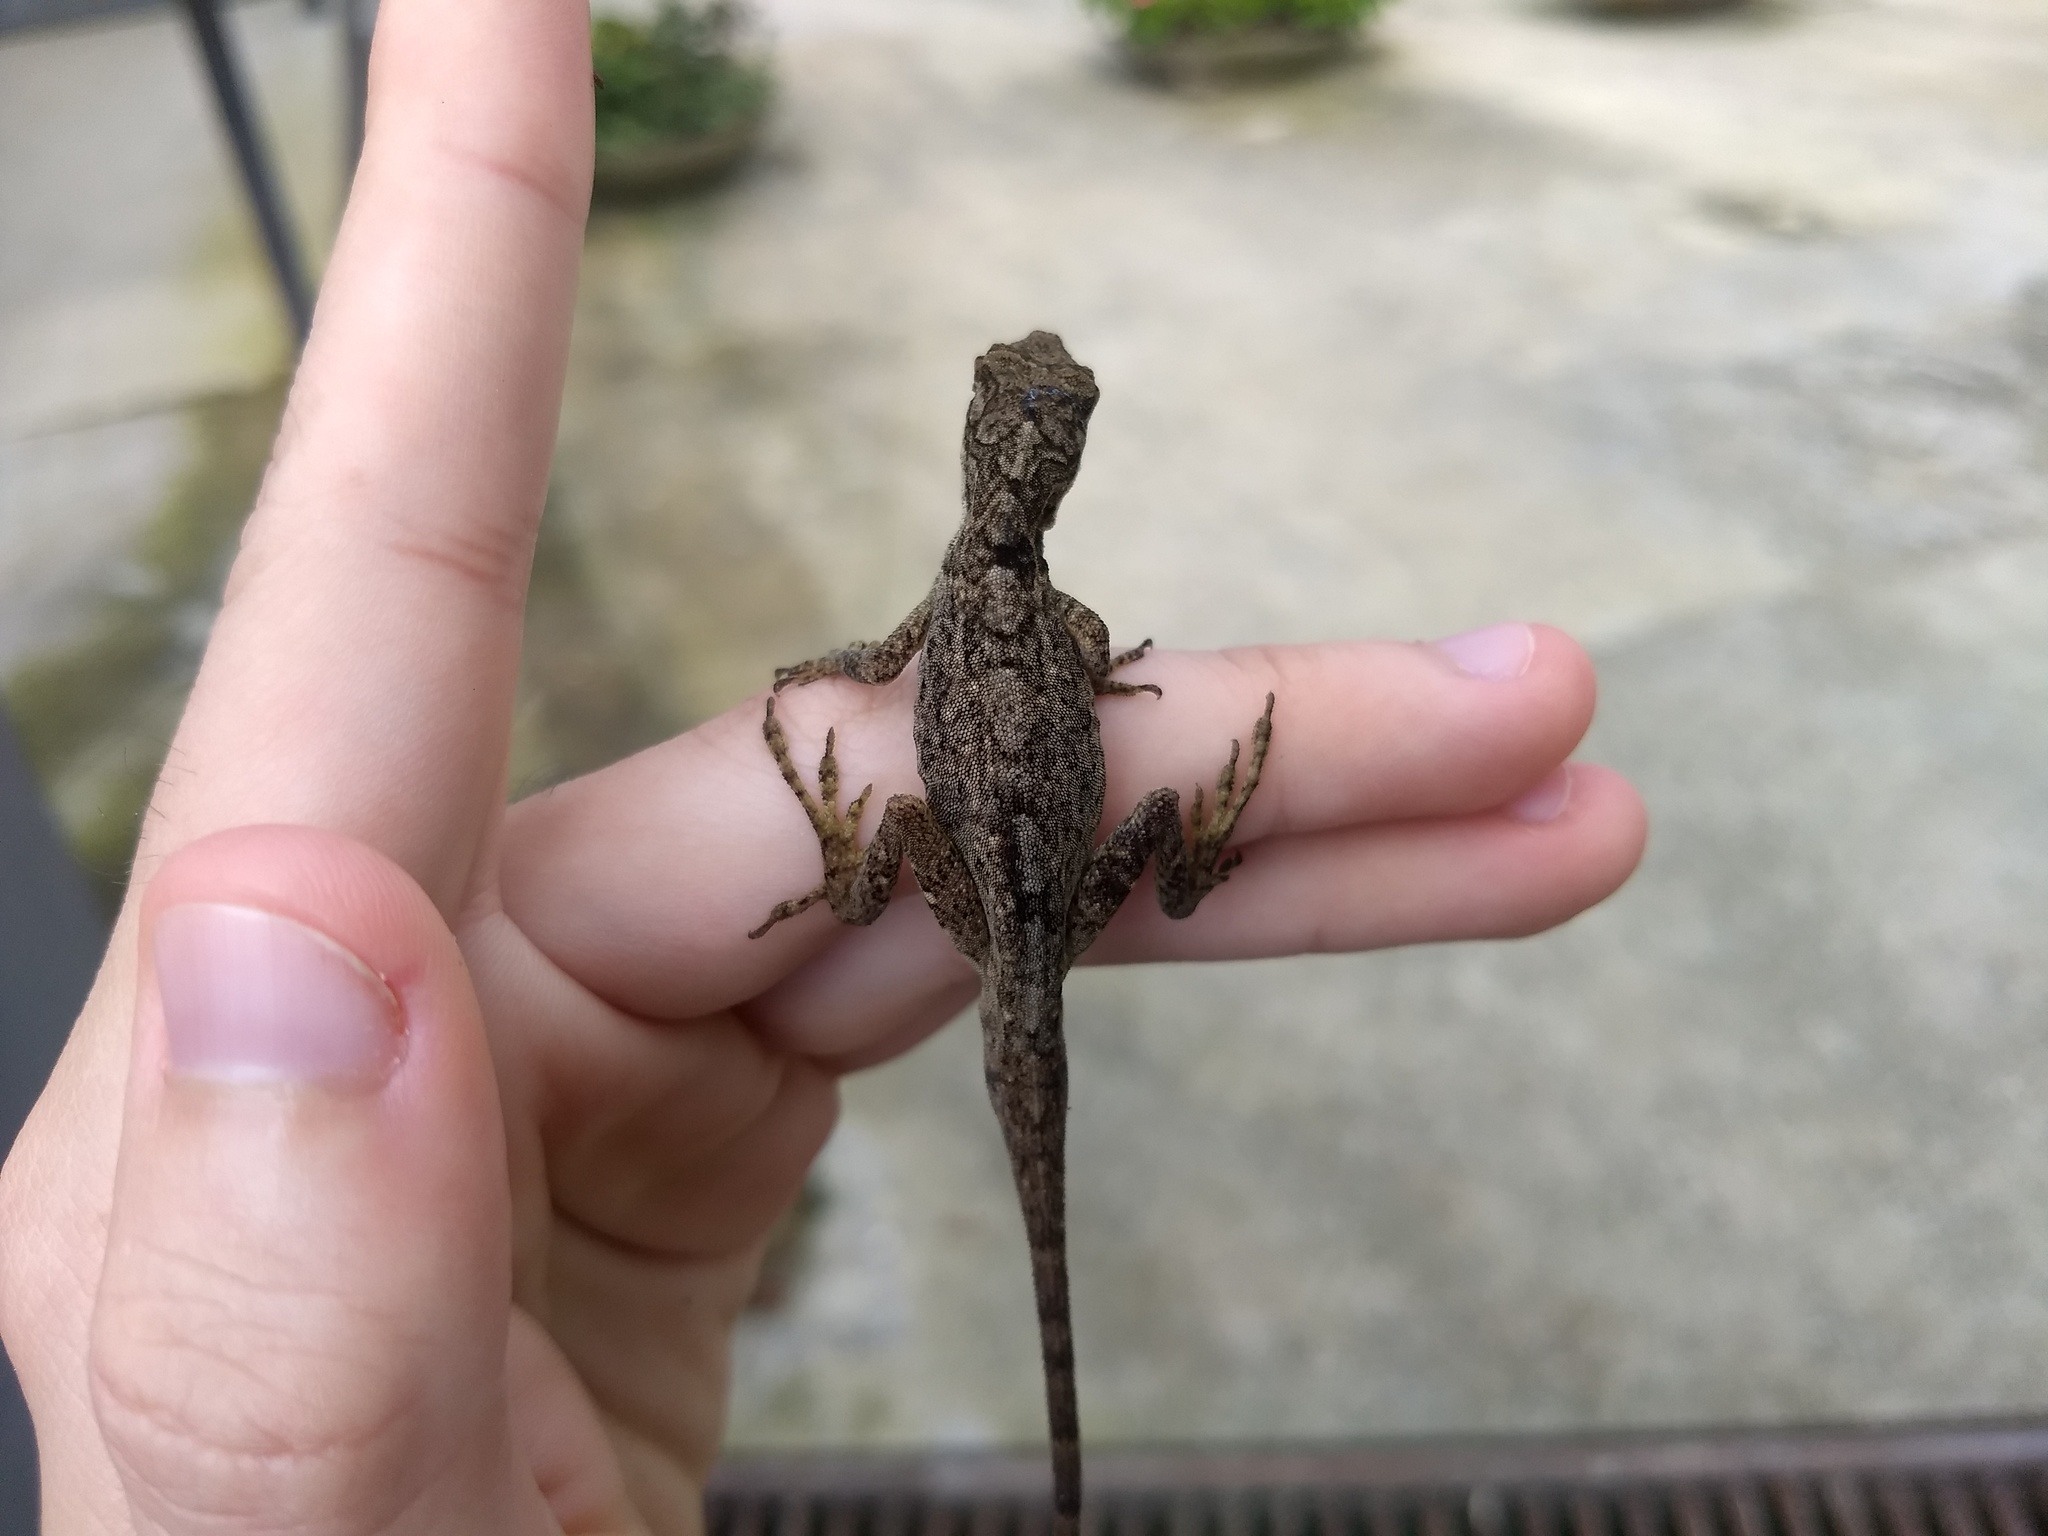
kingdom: Animalia
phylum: Chordata
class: Squamata
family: Dactyloidae
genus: Anolis
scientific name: Anolis mariarum
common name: Blemished anole
